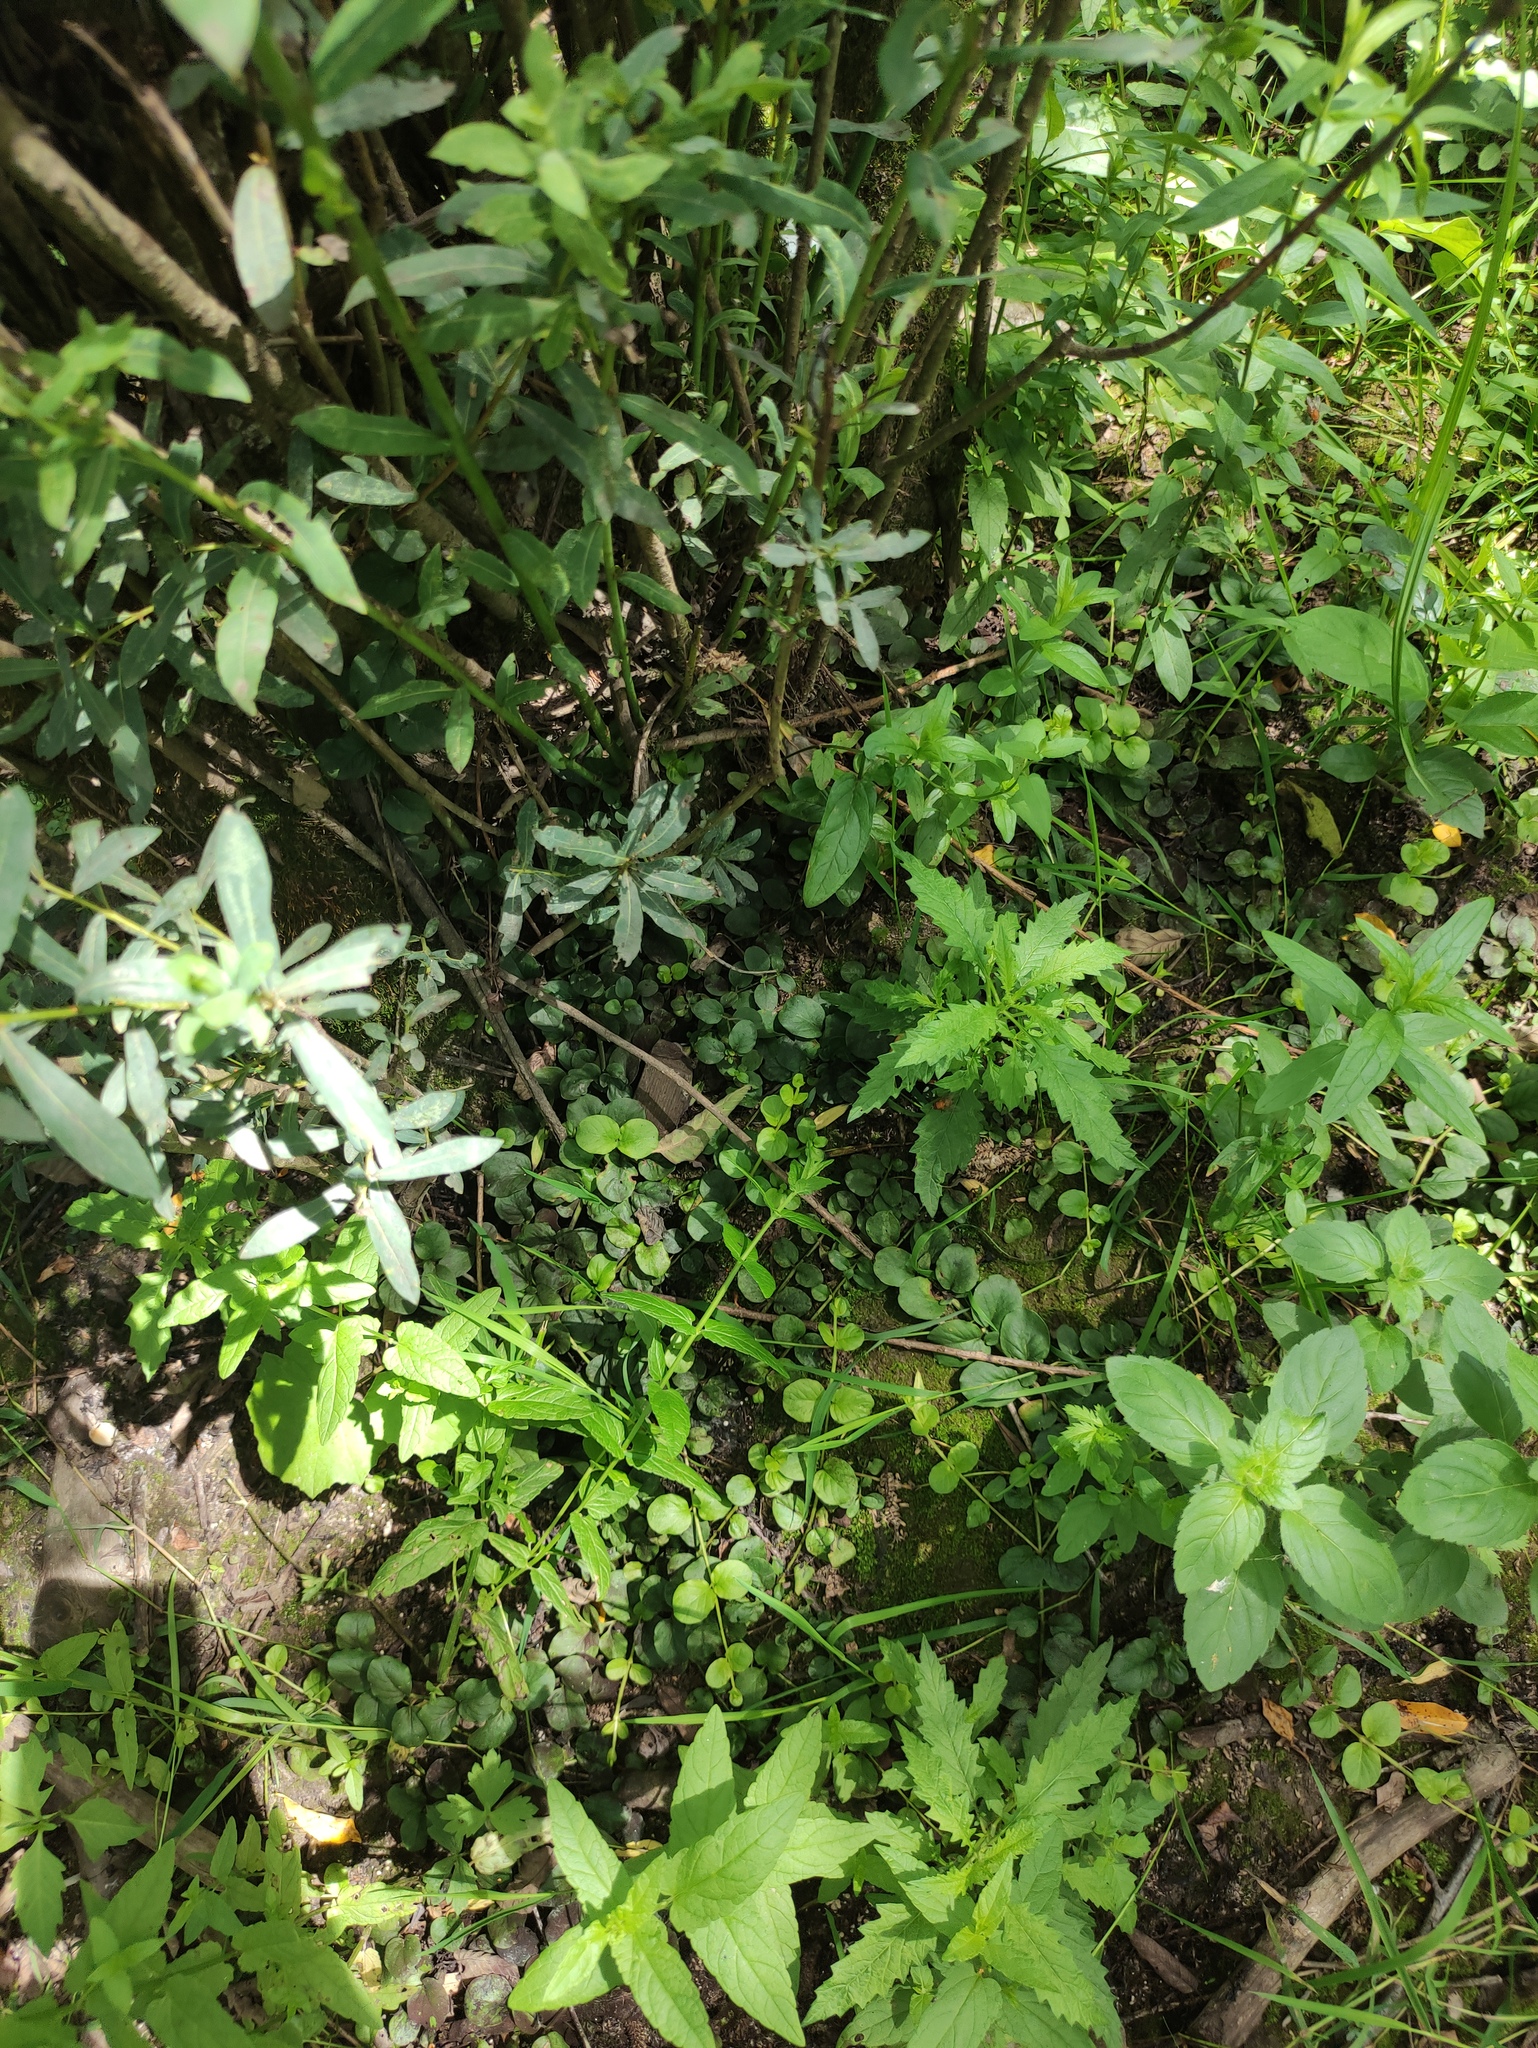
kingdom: Plantae
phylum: Tracheophyta
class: Magnoliopsida
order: Ericales
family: Primulaceae
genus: Lysimachia
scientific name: Lysimachia nummularia
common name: Moneywort
